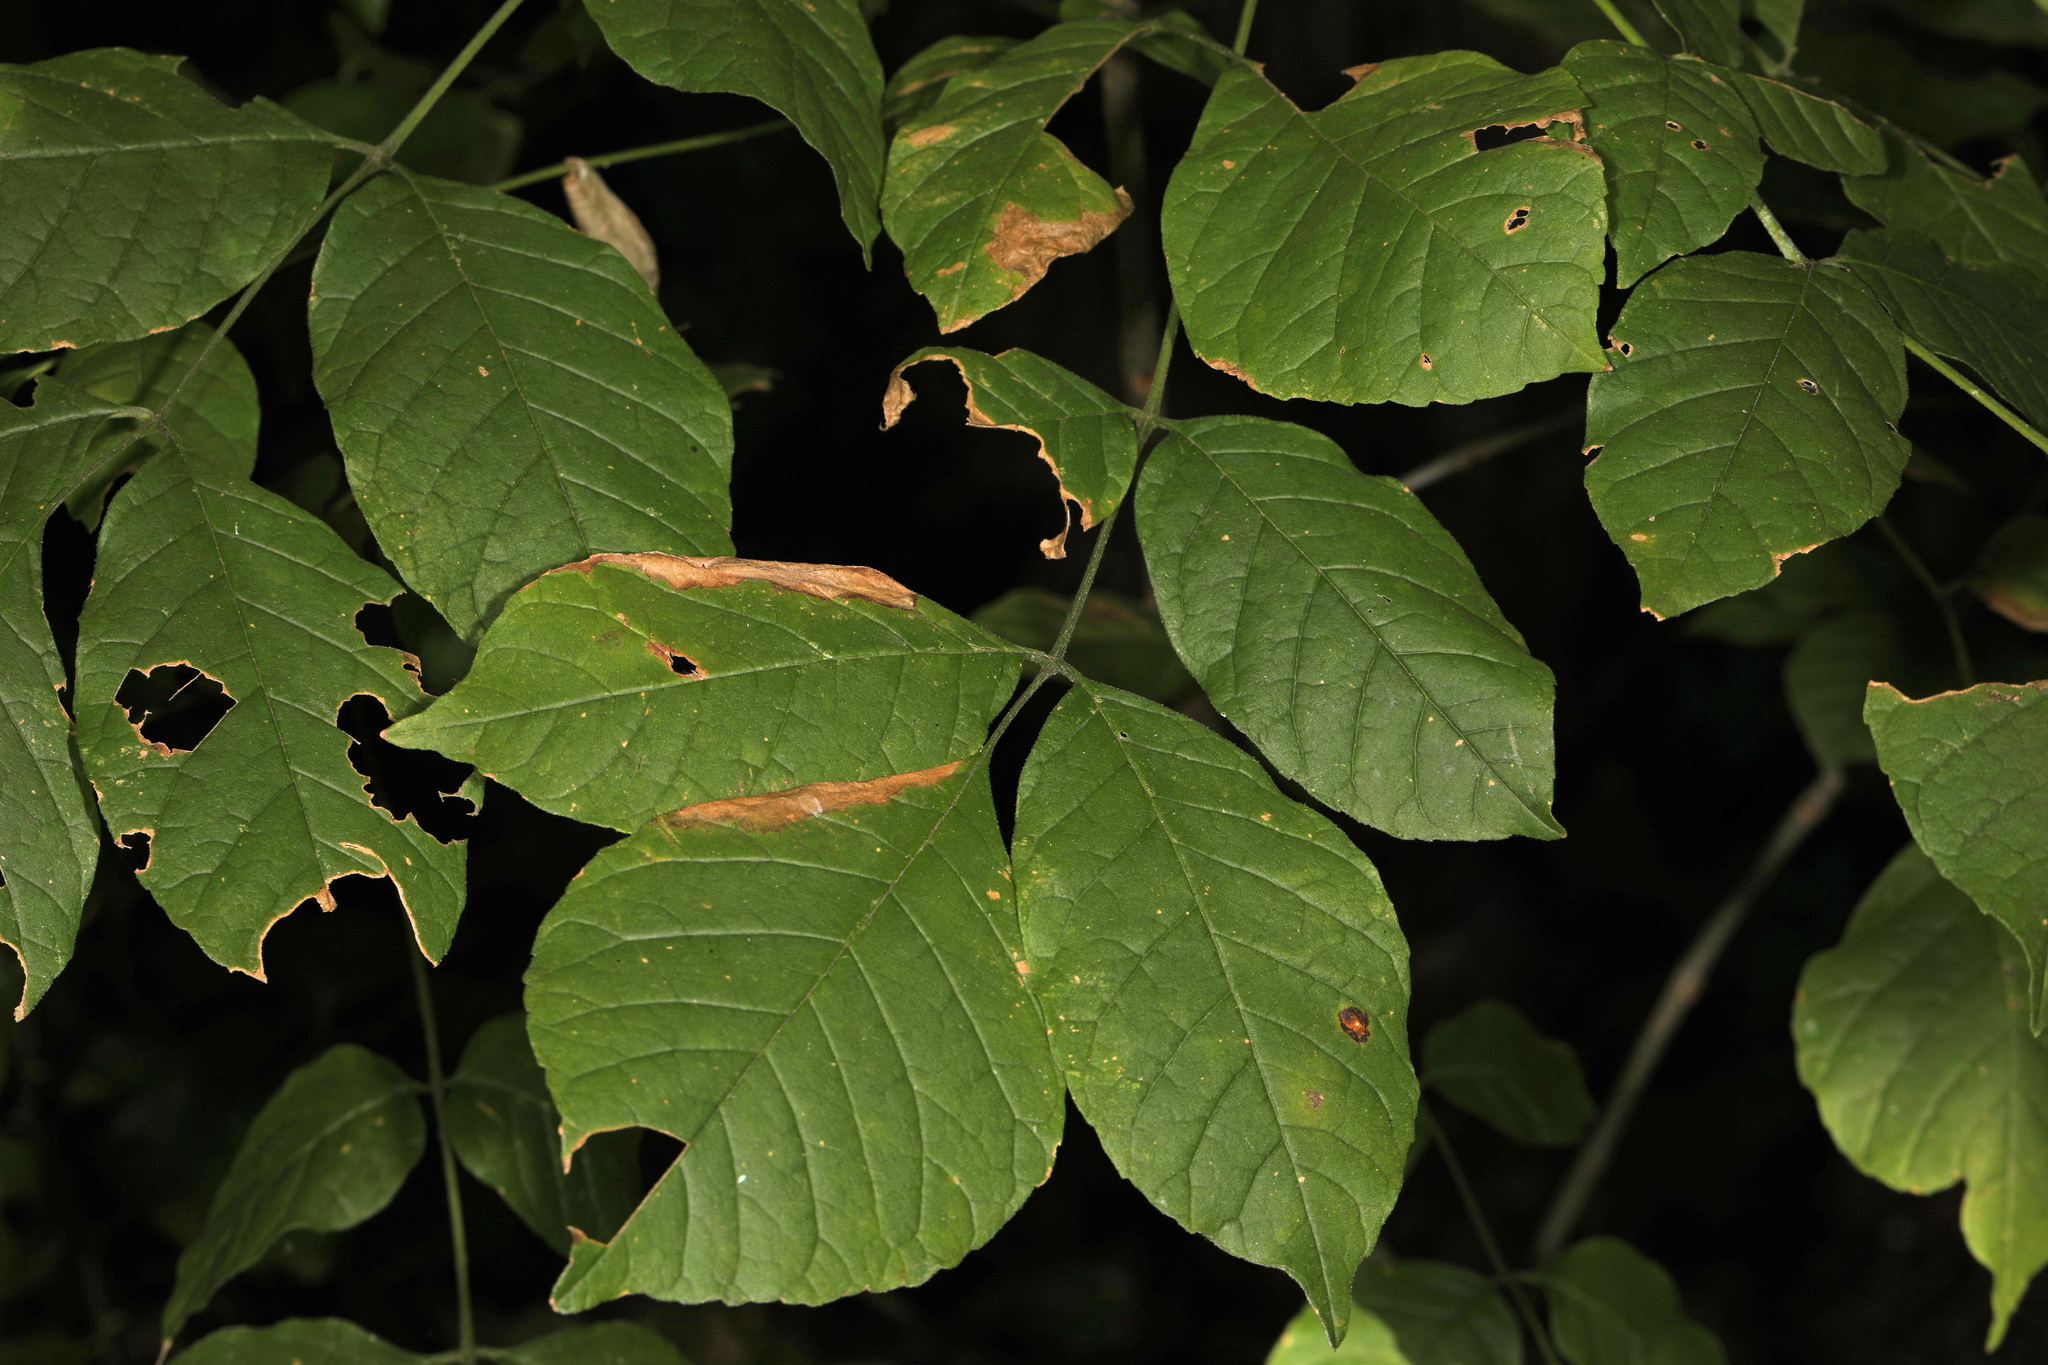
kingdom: Plantae
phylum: Tracheophyta
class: Magnoliopsida
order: Lamiales
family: Oleaceae
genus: Fraxinus
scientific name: Fraxinus americana
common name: White ash
